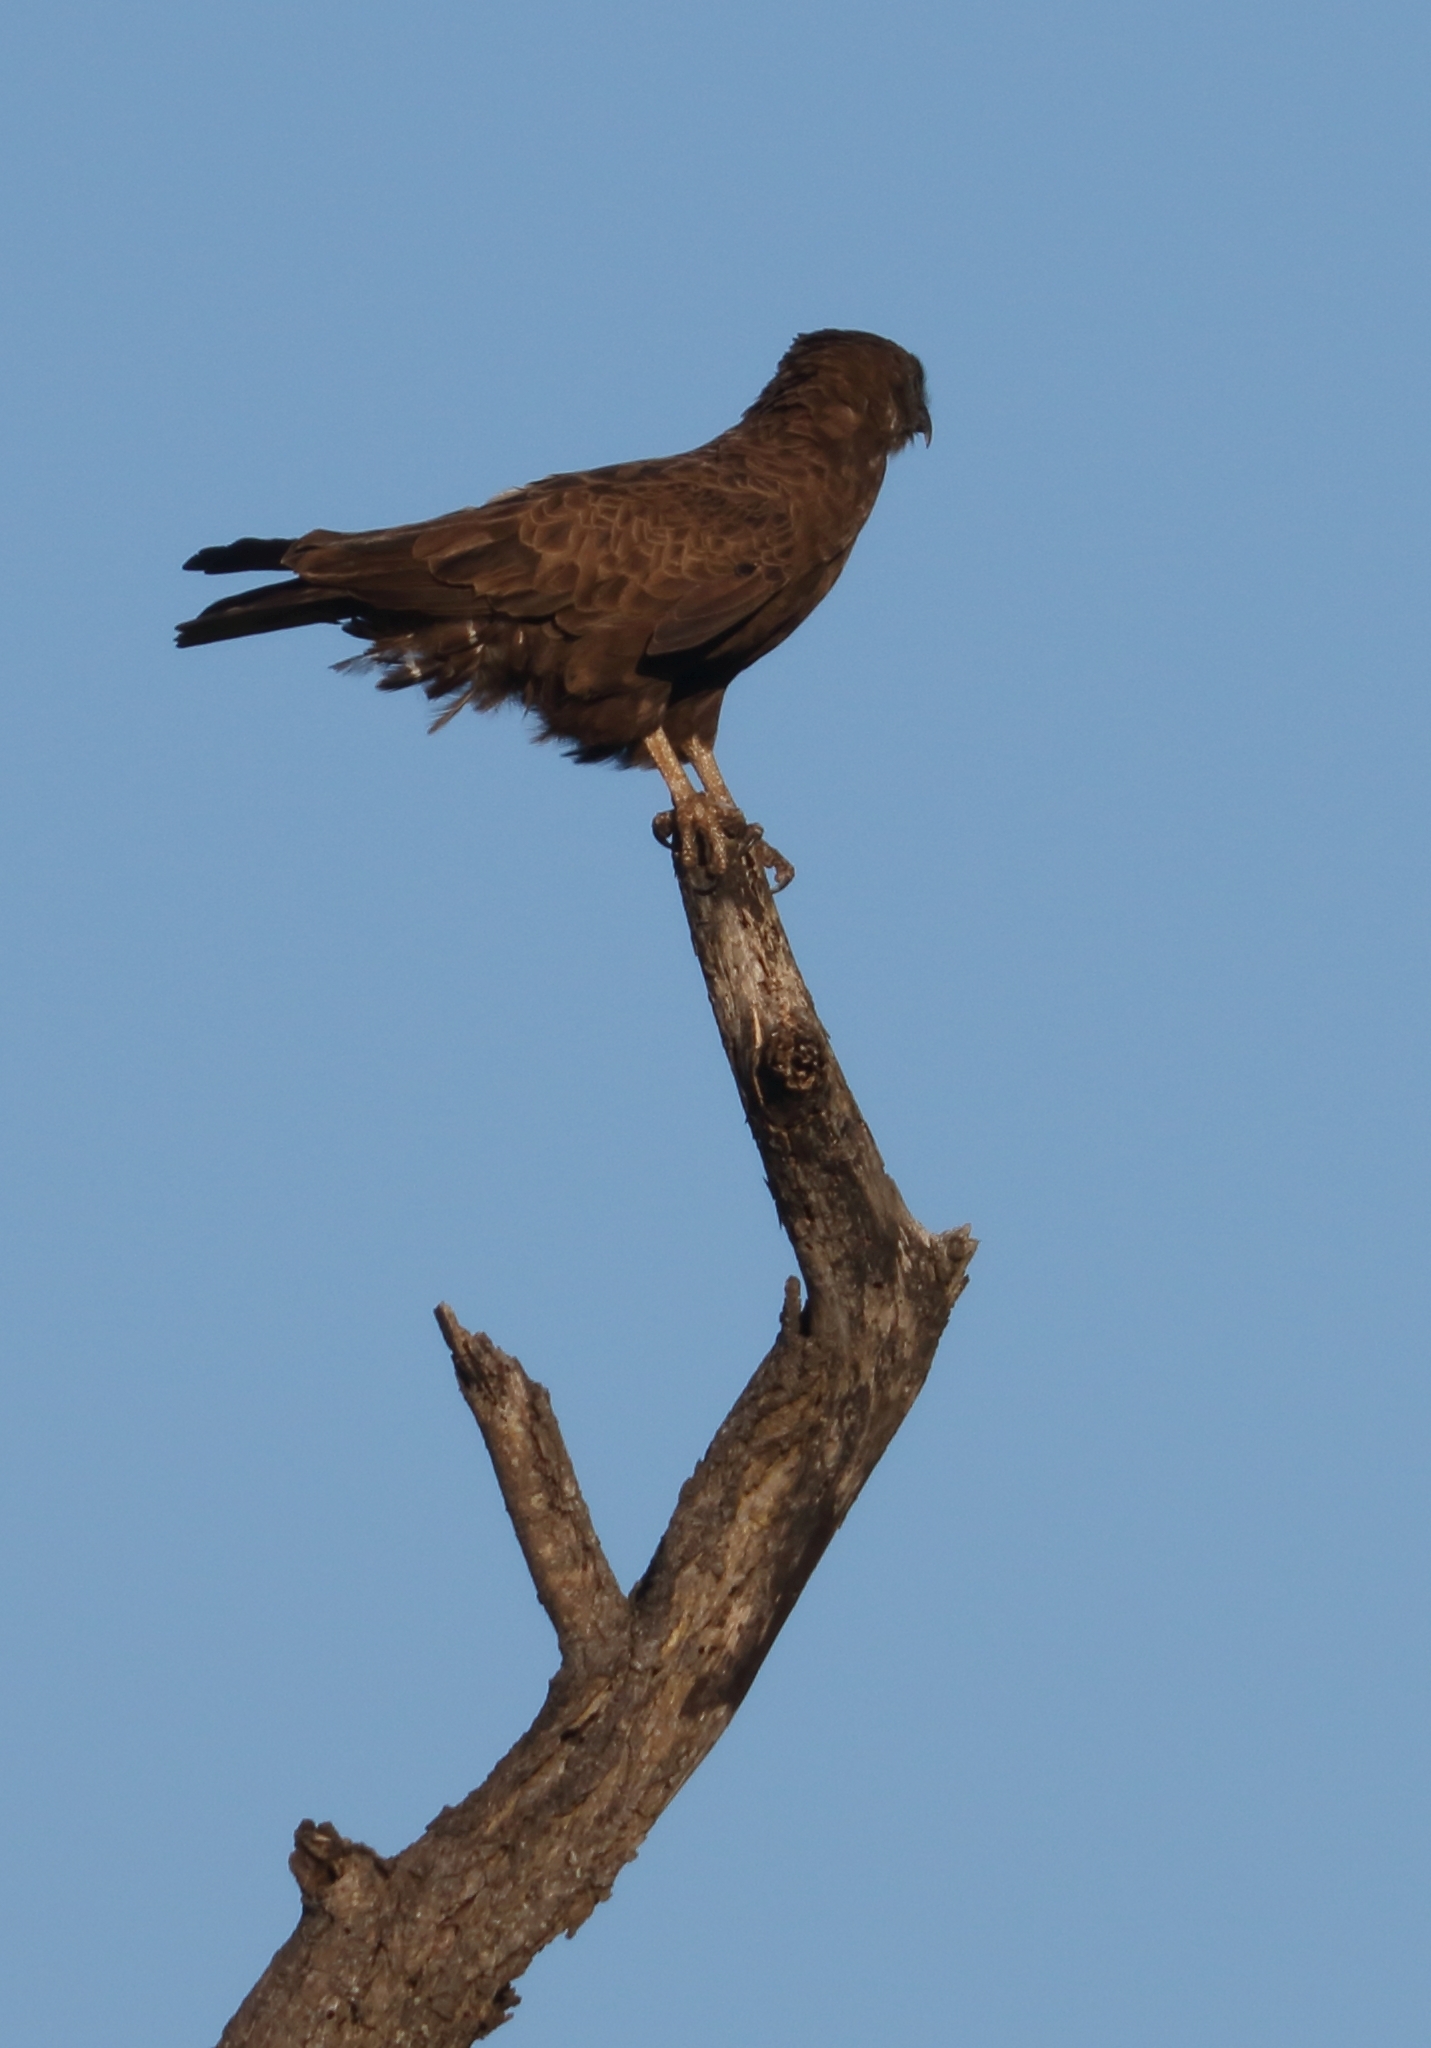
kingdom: Animalia
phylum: Chordata
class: Aves
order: Accipitriformes
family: Accipitridae
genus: Circaetus
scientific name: Circaetus cinereus
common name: Brown snake eagle
